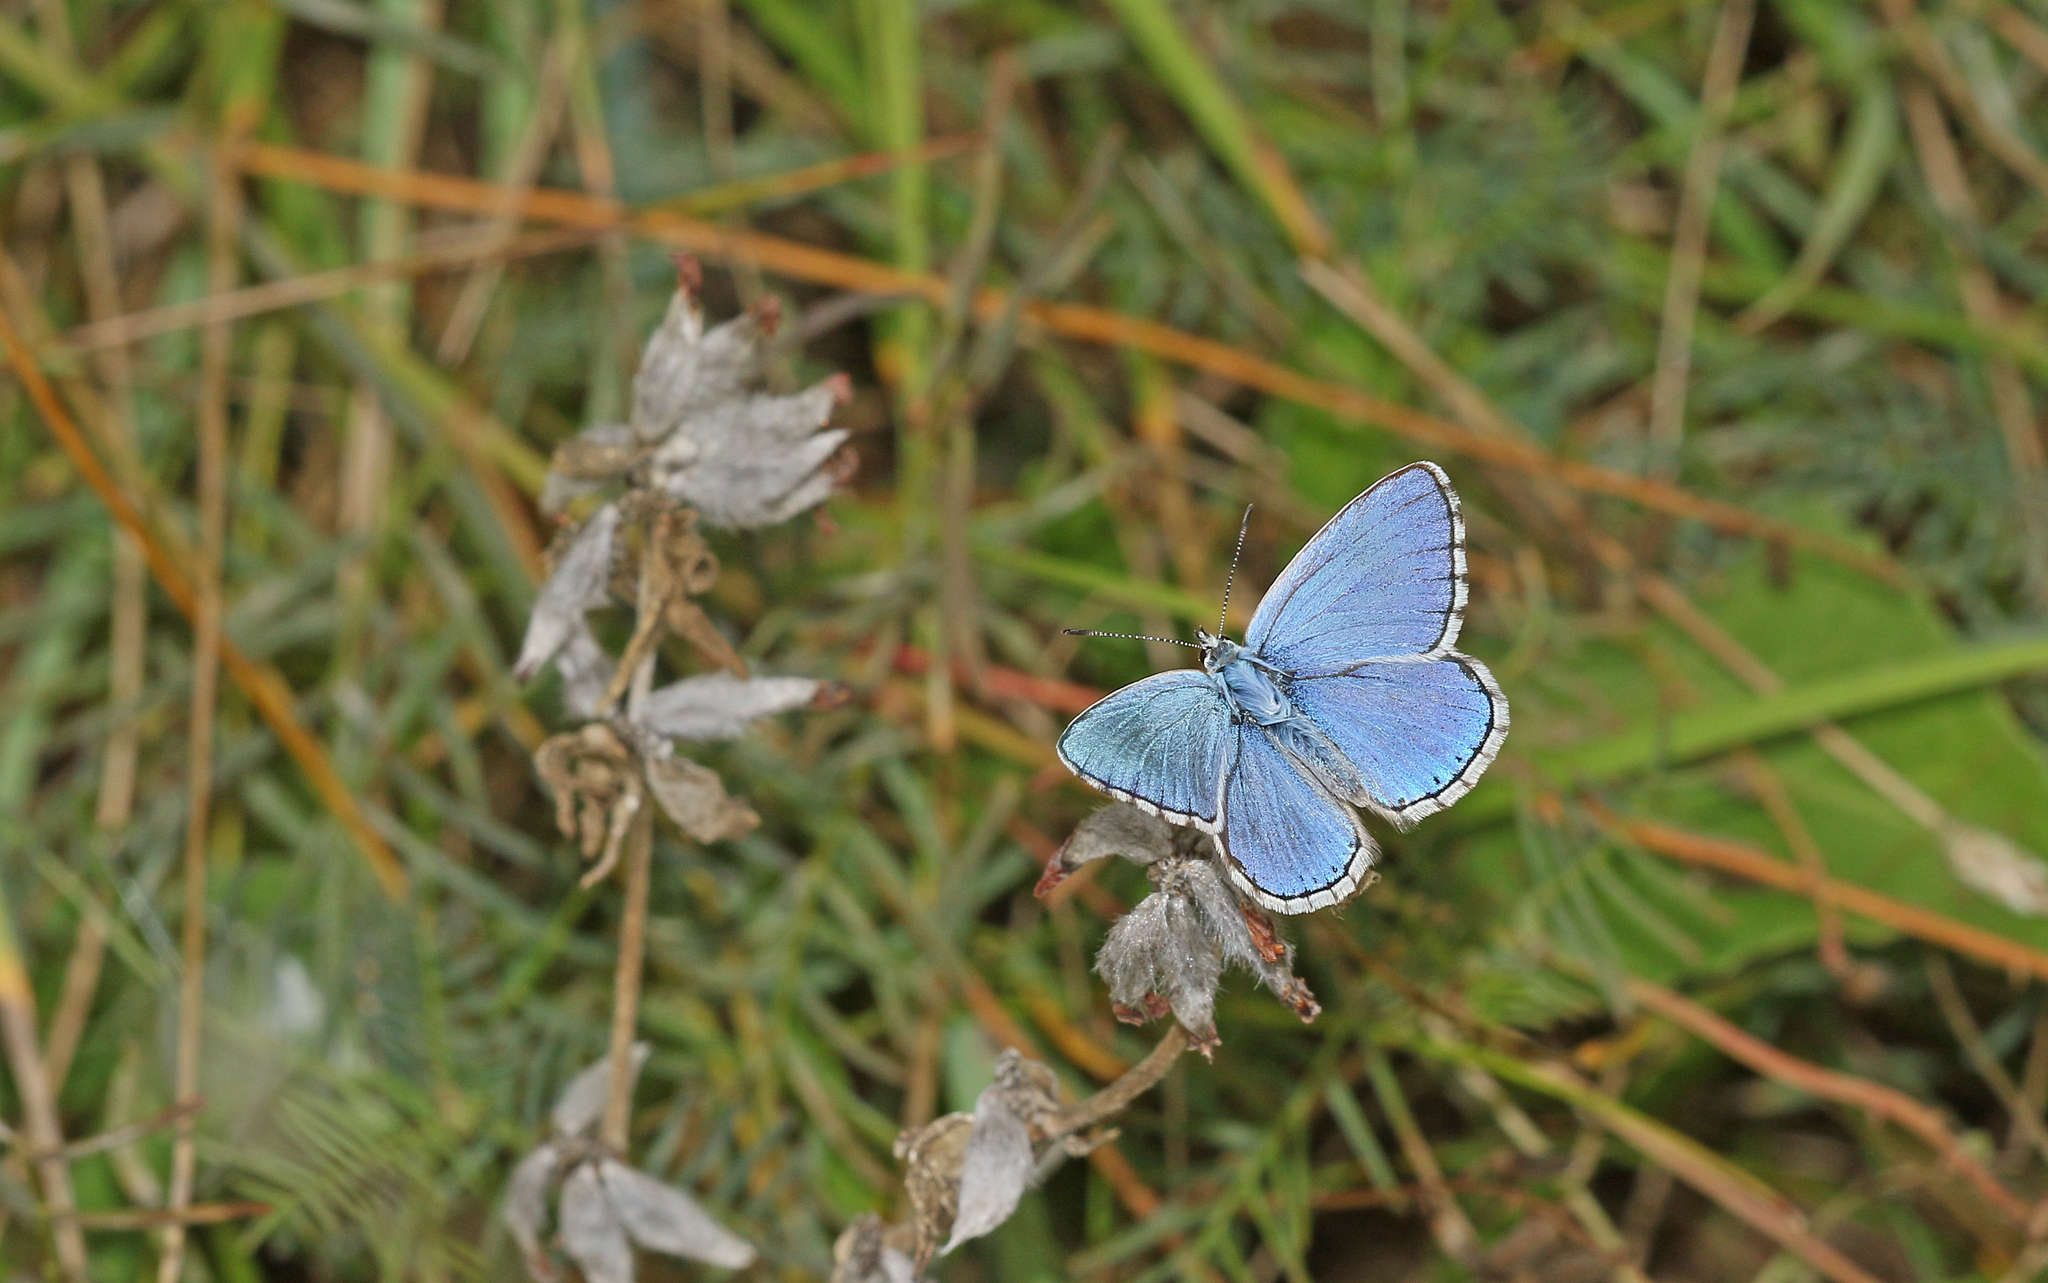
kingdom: Animalia
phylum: Arthropoda
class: Insecta
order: Lepidoptera
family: Lycaenidae
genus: Lysandra
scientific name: Lysandra bellargus
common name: Adonis blue
